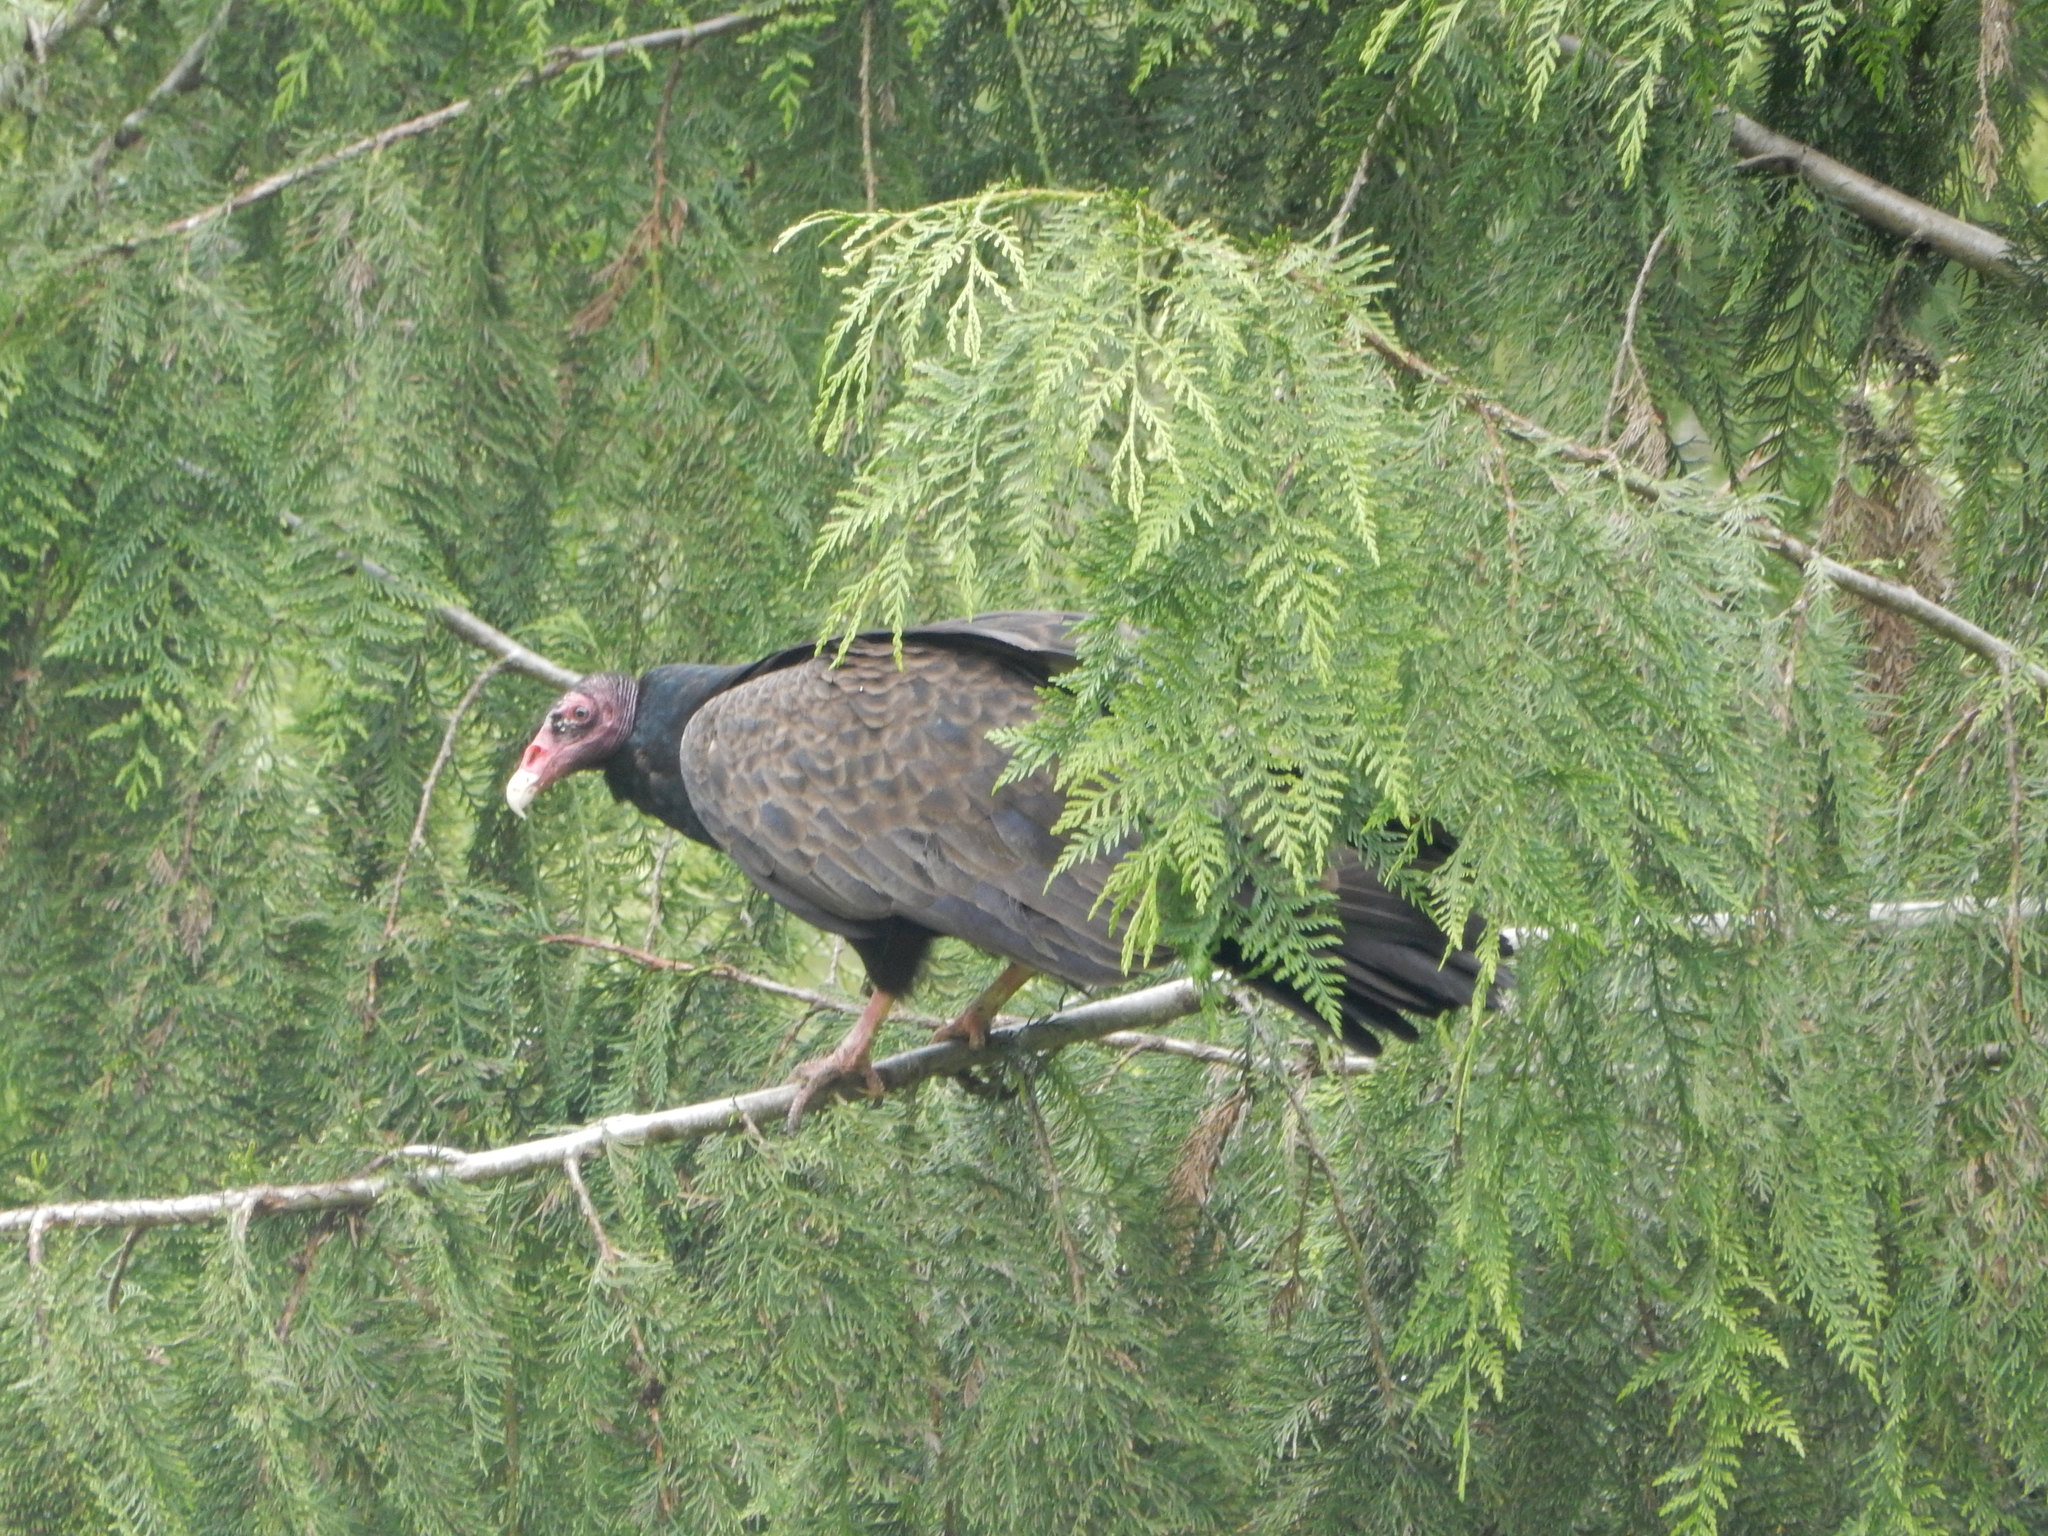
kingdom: Animalia
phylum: Chordata
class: Aves
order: Accipitriformes
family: Cathartidae
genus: Cathartes
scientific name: Cathartes aura
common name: Turkey vulture
